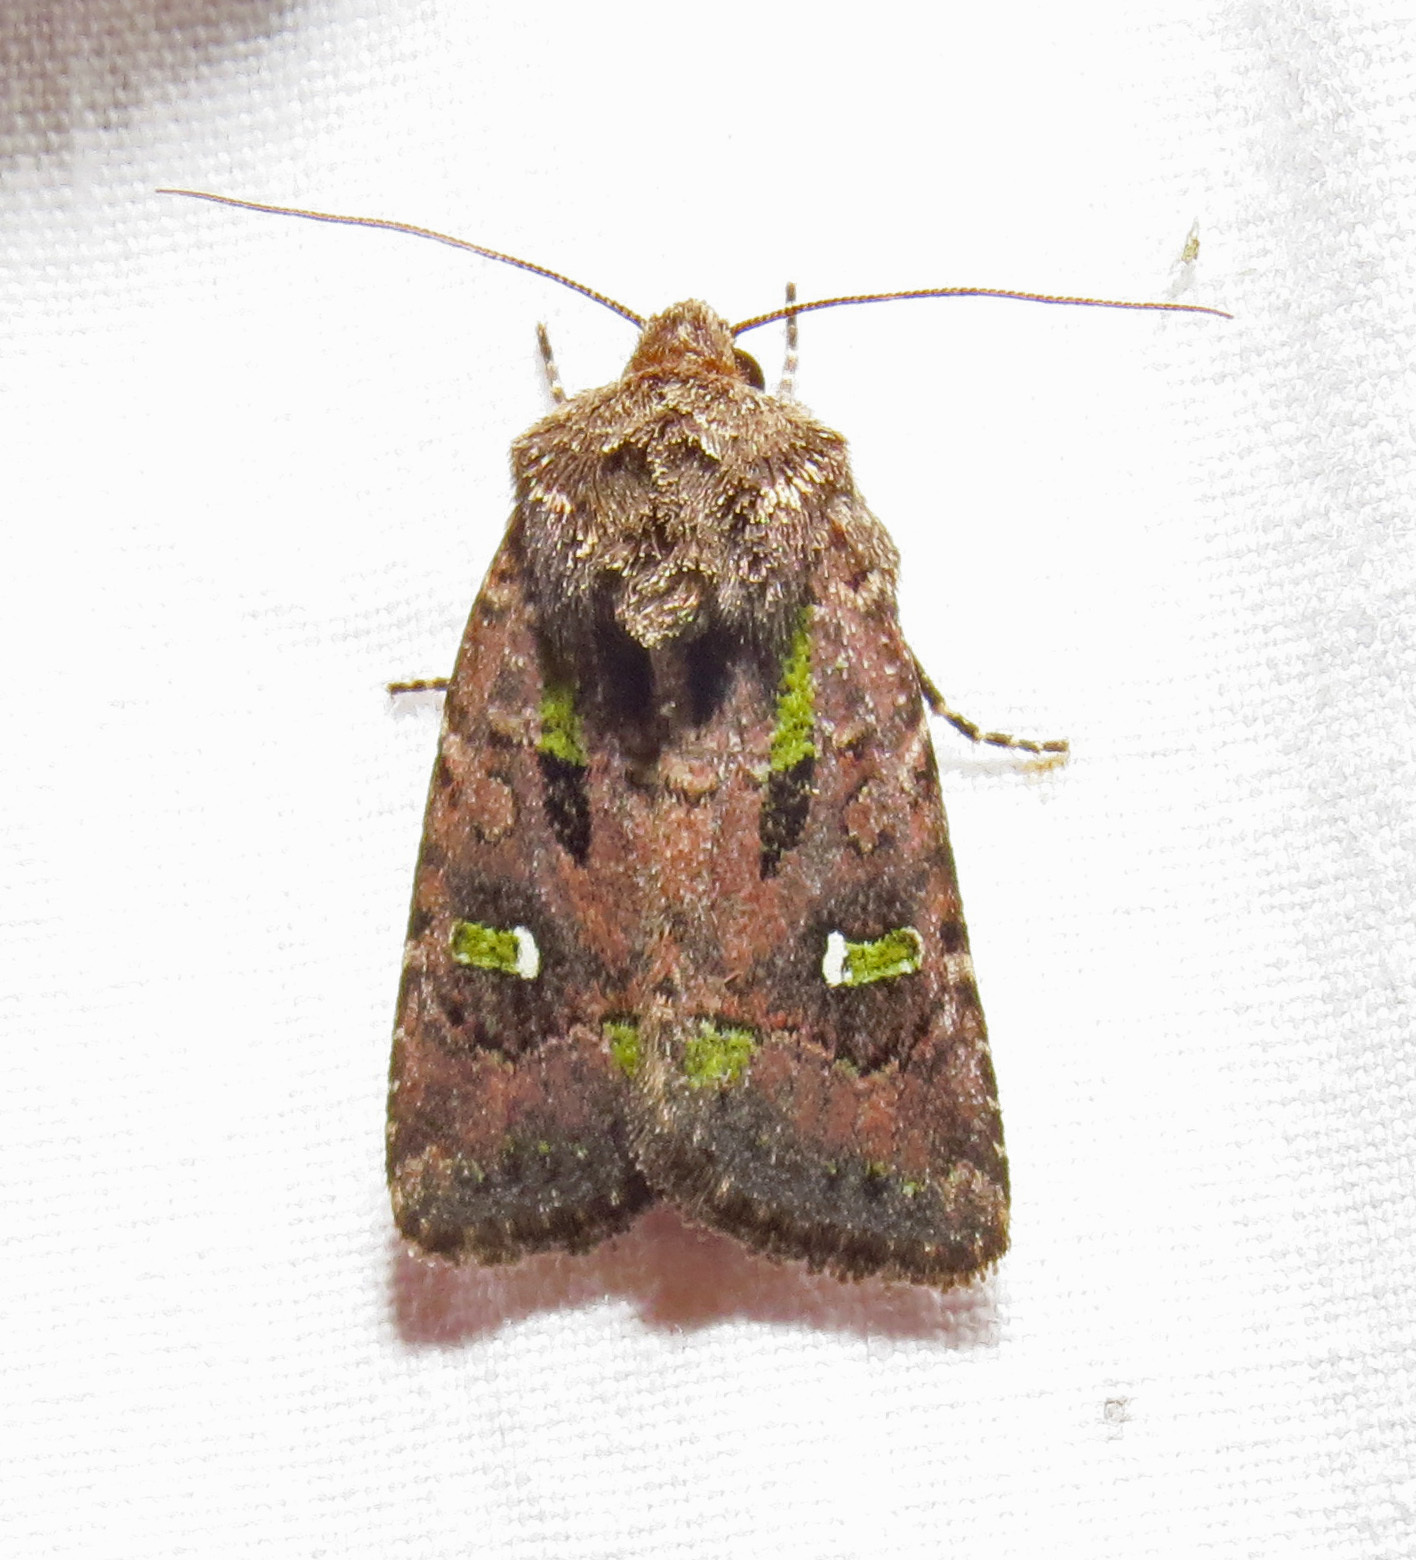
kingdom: Animalia
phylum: Arthropoda
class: Insecta
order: Lepidoptera
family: Noctuidae
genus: Lacinipolia
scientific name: Lacinipolia renigera
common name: Kidney-spotted minor
